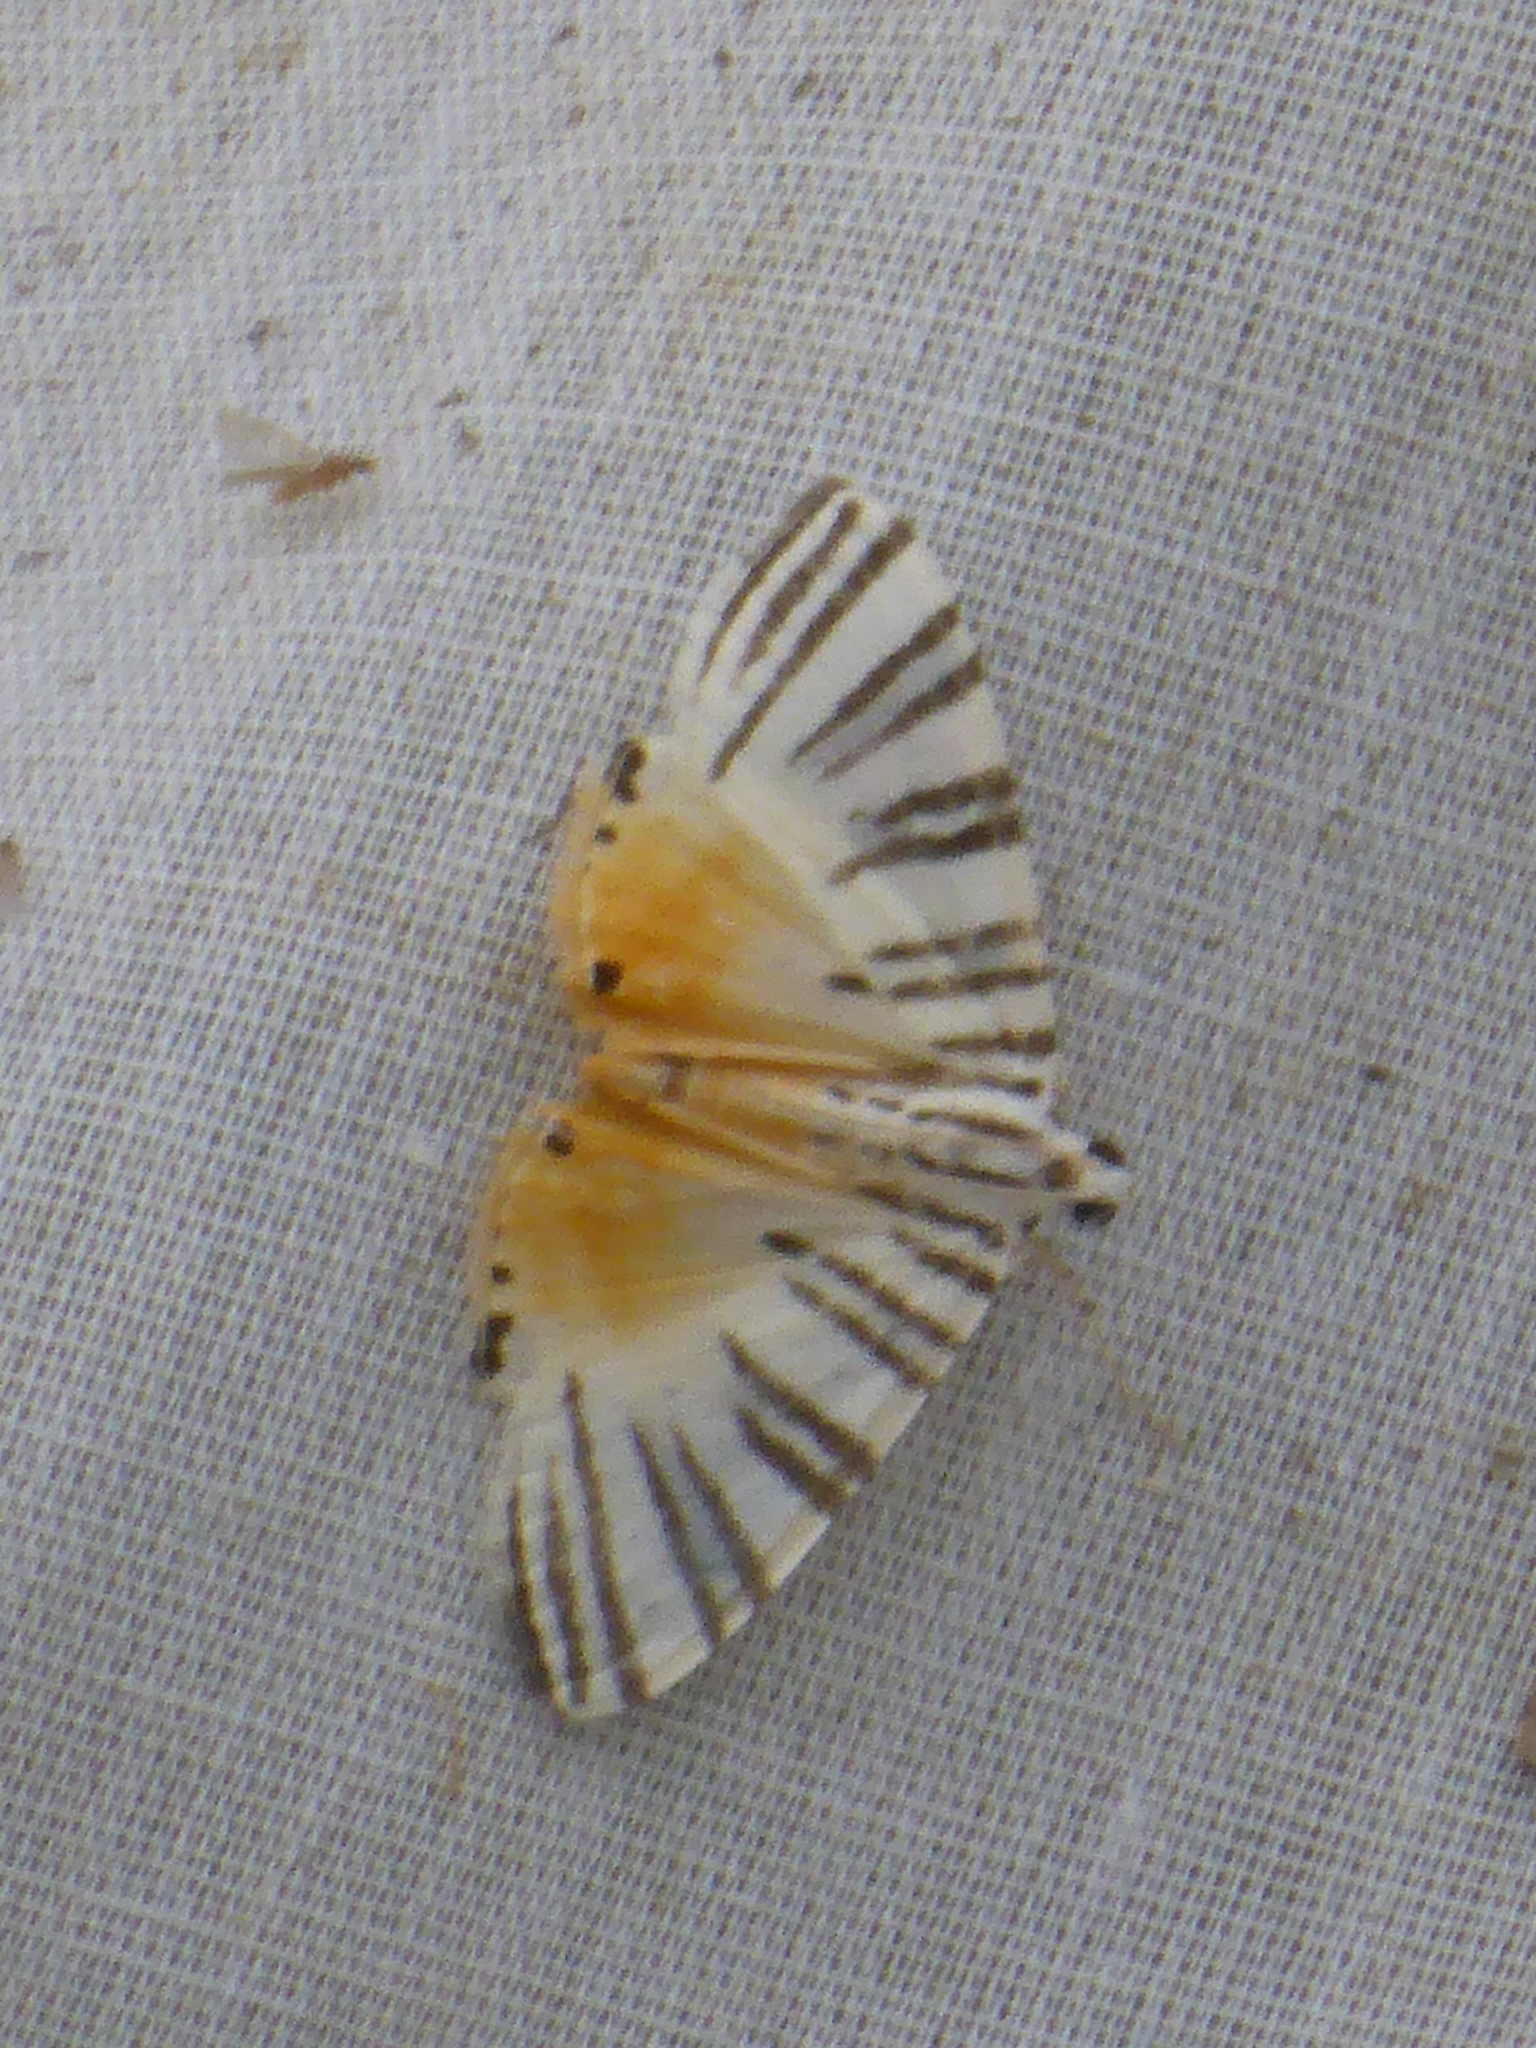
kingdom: Animalia
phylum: Arthropoda
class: Insecta
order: Lepidoptera
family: Crambidae
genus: Dichocrocis
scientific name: Dichocrocis zebralis
